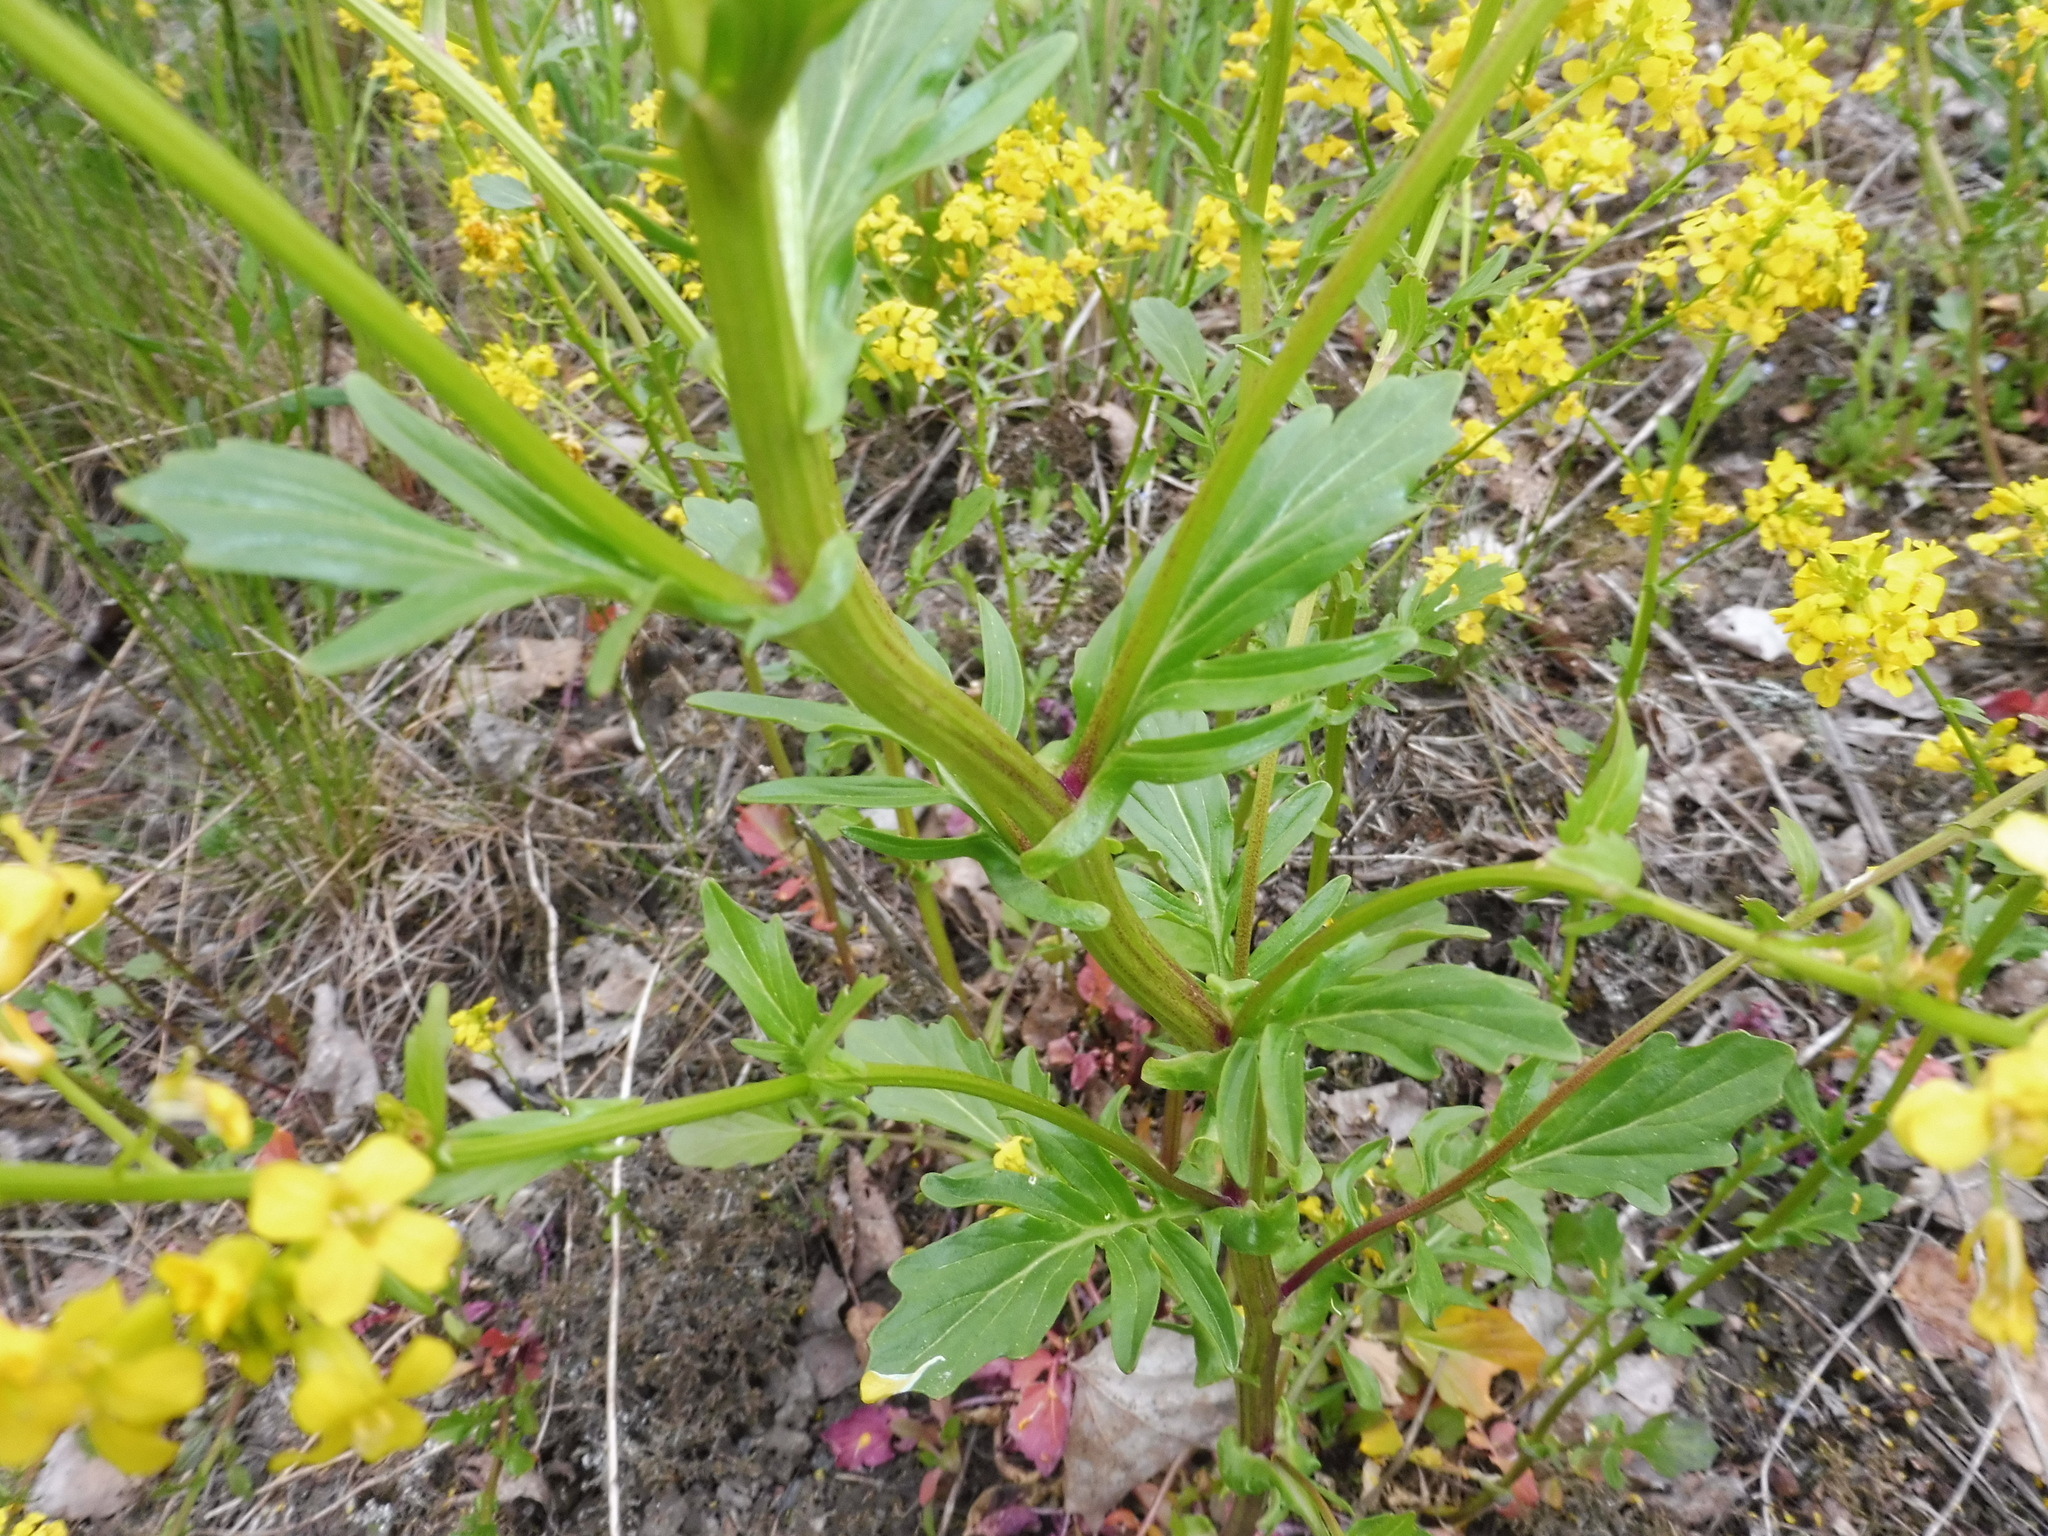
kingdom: Plantae
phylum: Tracheophyta
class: Magnoliopsida
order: Brassicales
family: Brassicaceae
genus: Barbarea
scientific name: Barbarea vulgaris
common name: Cressy-greens
